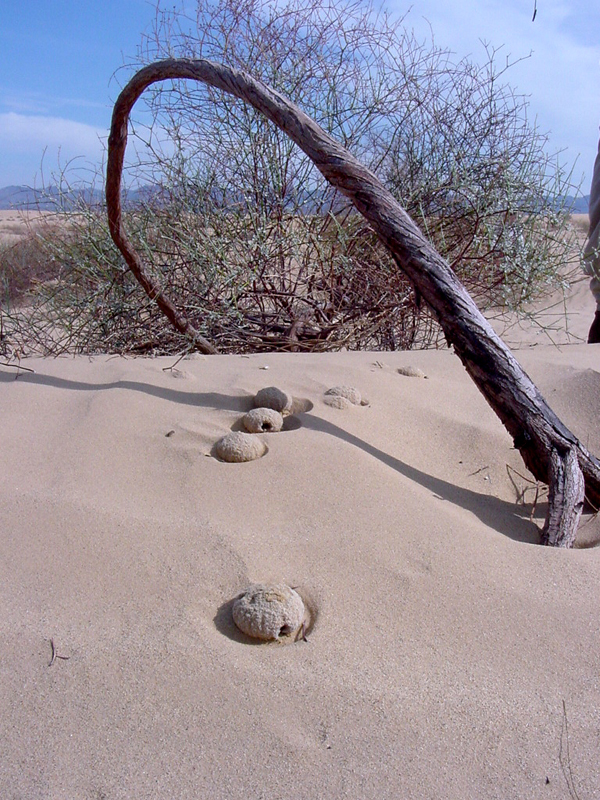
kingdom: Plantae
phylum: Tracheophyta
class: Magnoliopsida
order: Boraginales
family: Lennoaceae
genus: Pholisma
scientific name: Pholisma sonorae
